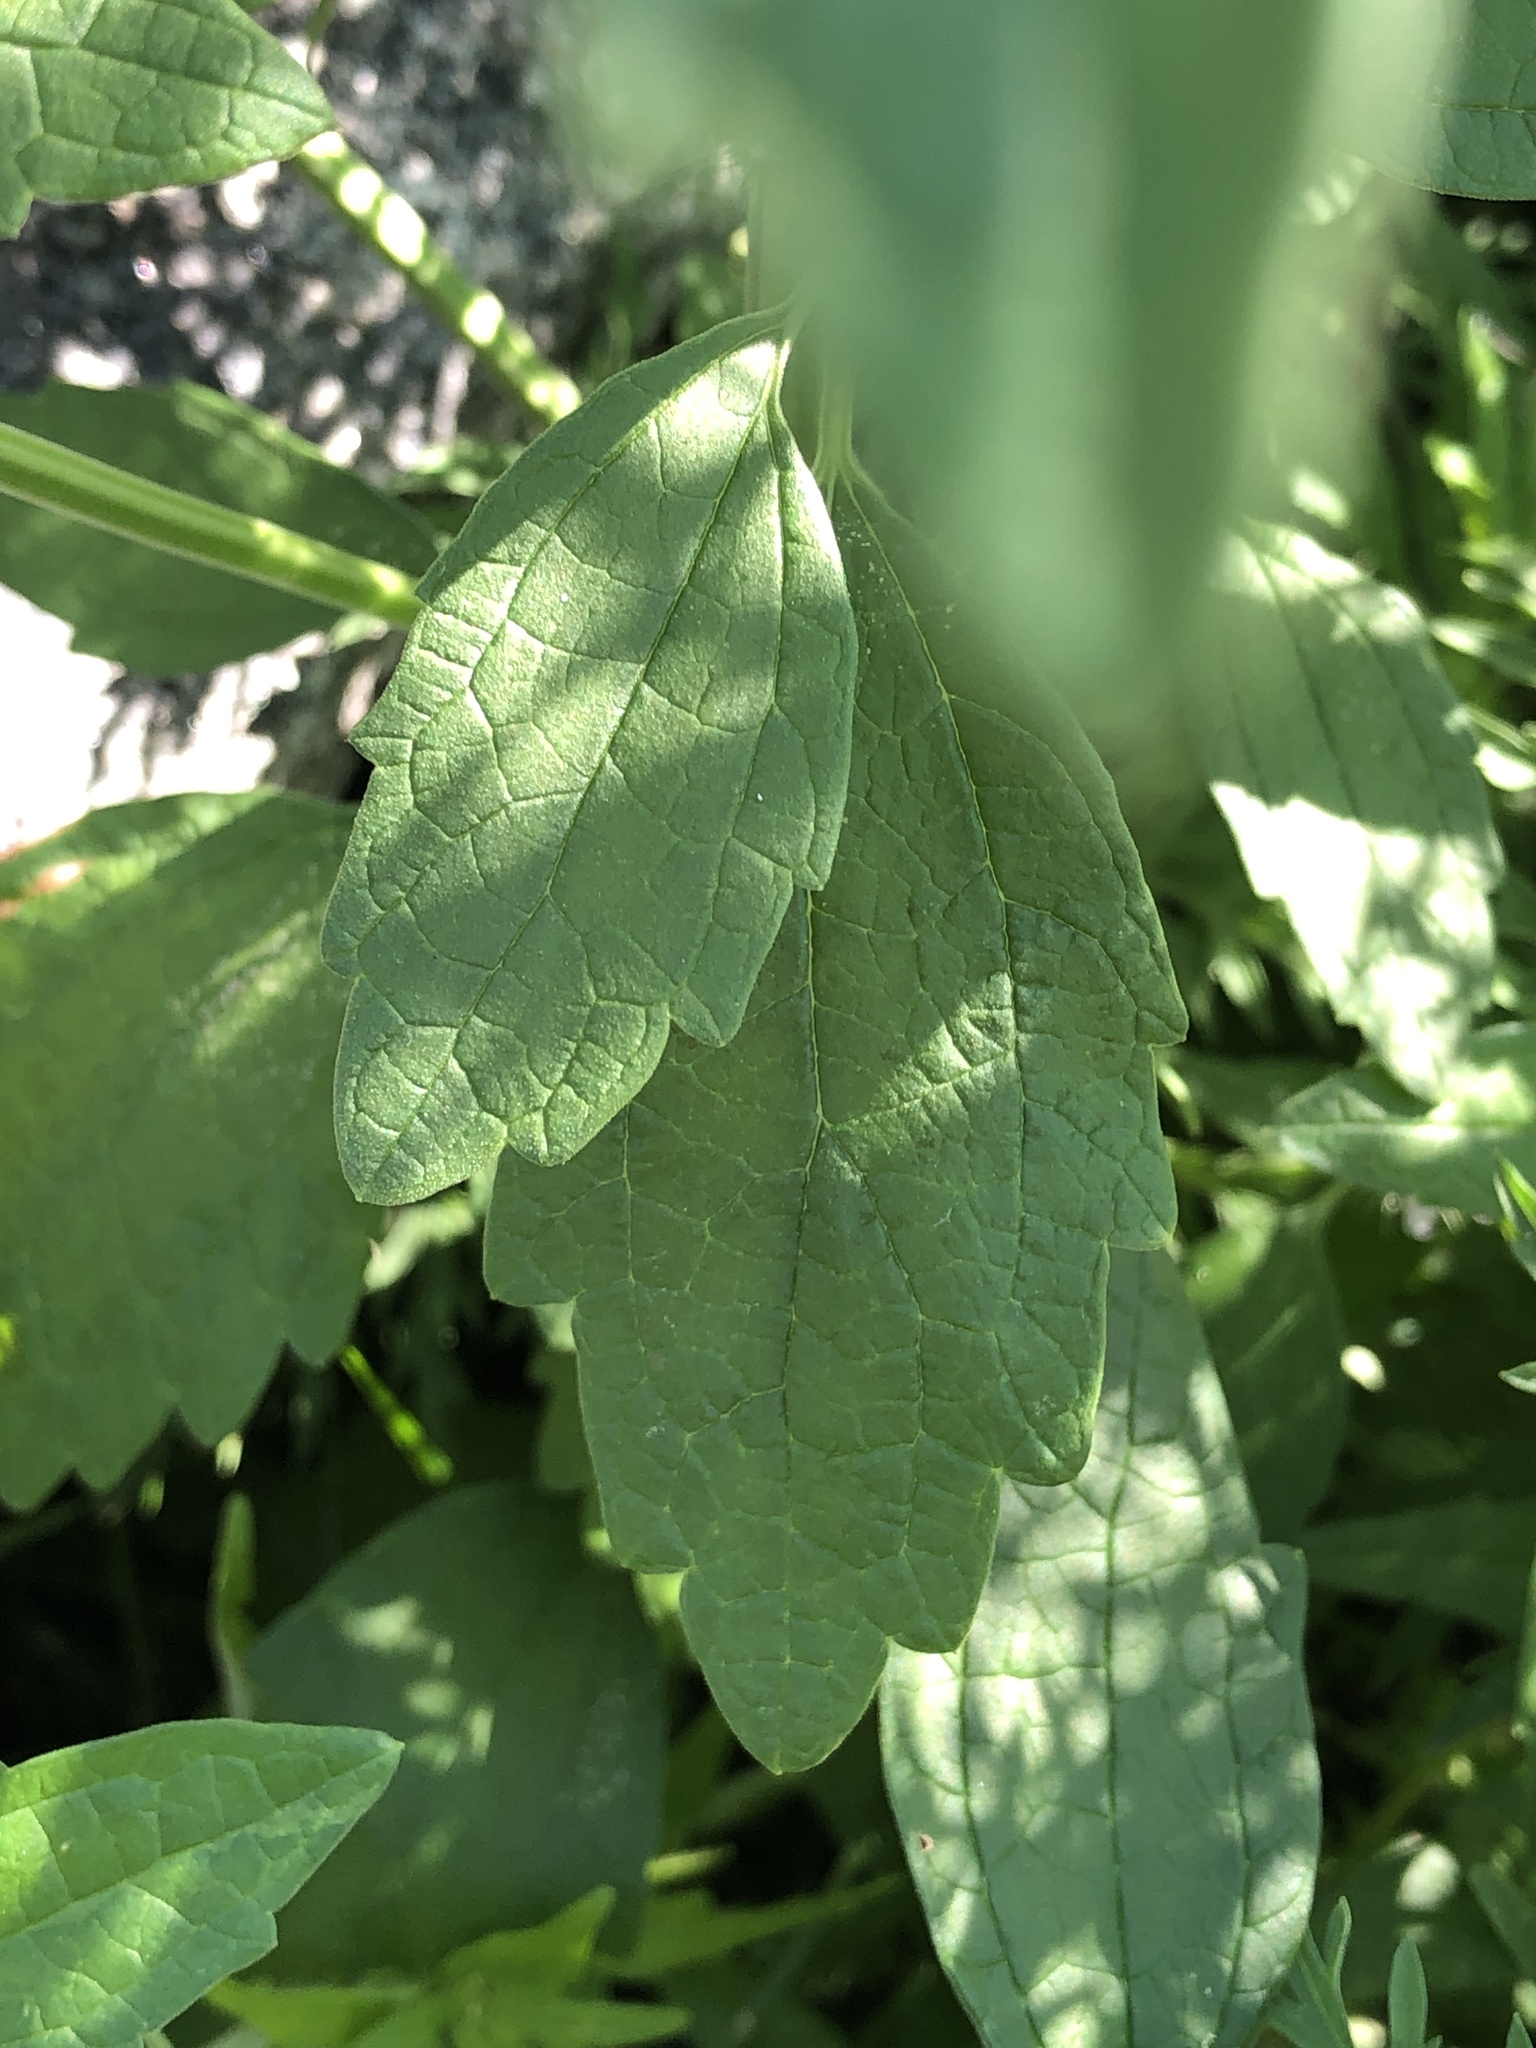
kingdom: Plantae
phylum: Tracheophyta
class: Magnoliopsida
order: Lamiales
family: Lamiaceae
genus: Chaiturus
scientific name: Chaiturus marrubiastrum
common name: Lion's tail
